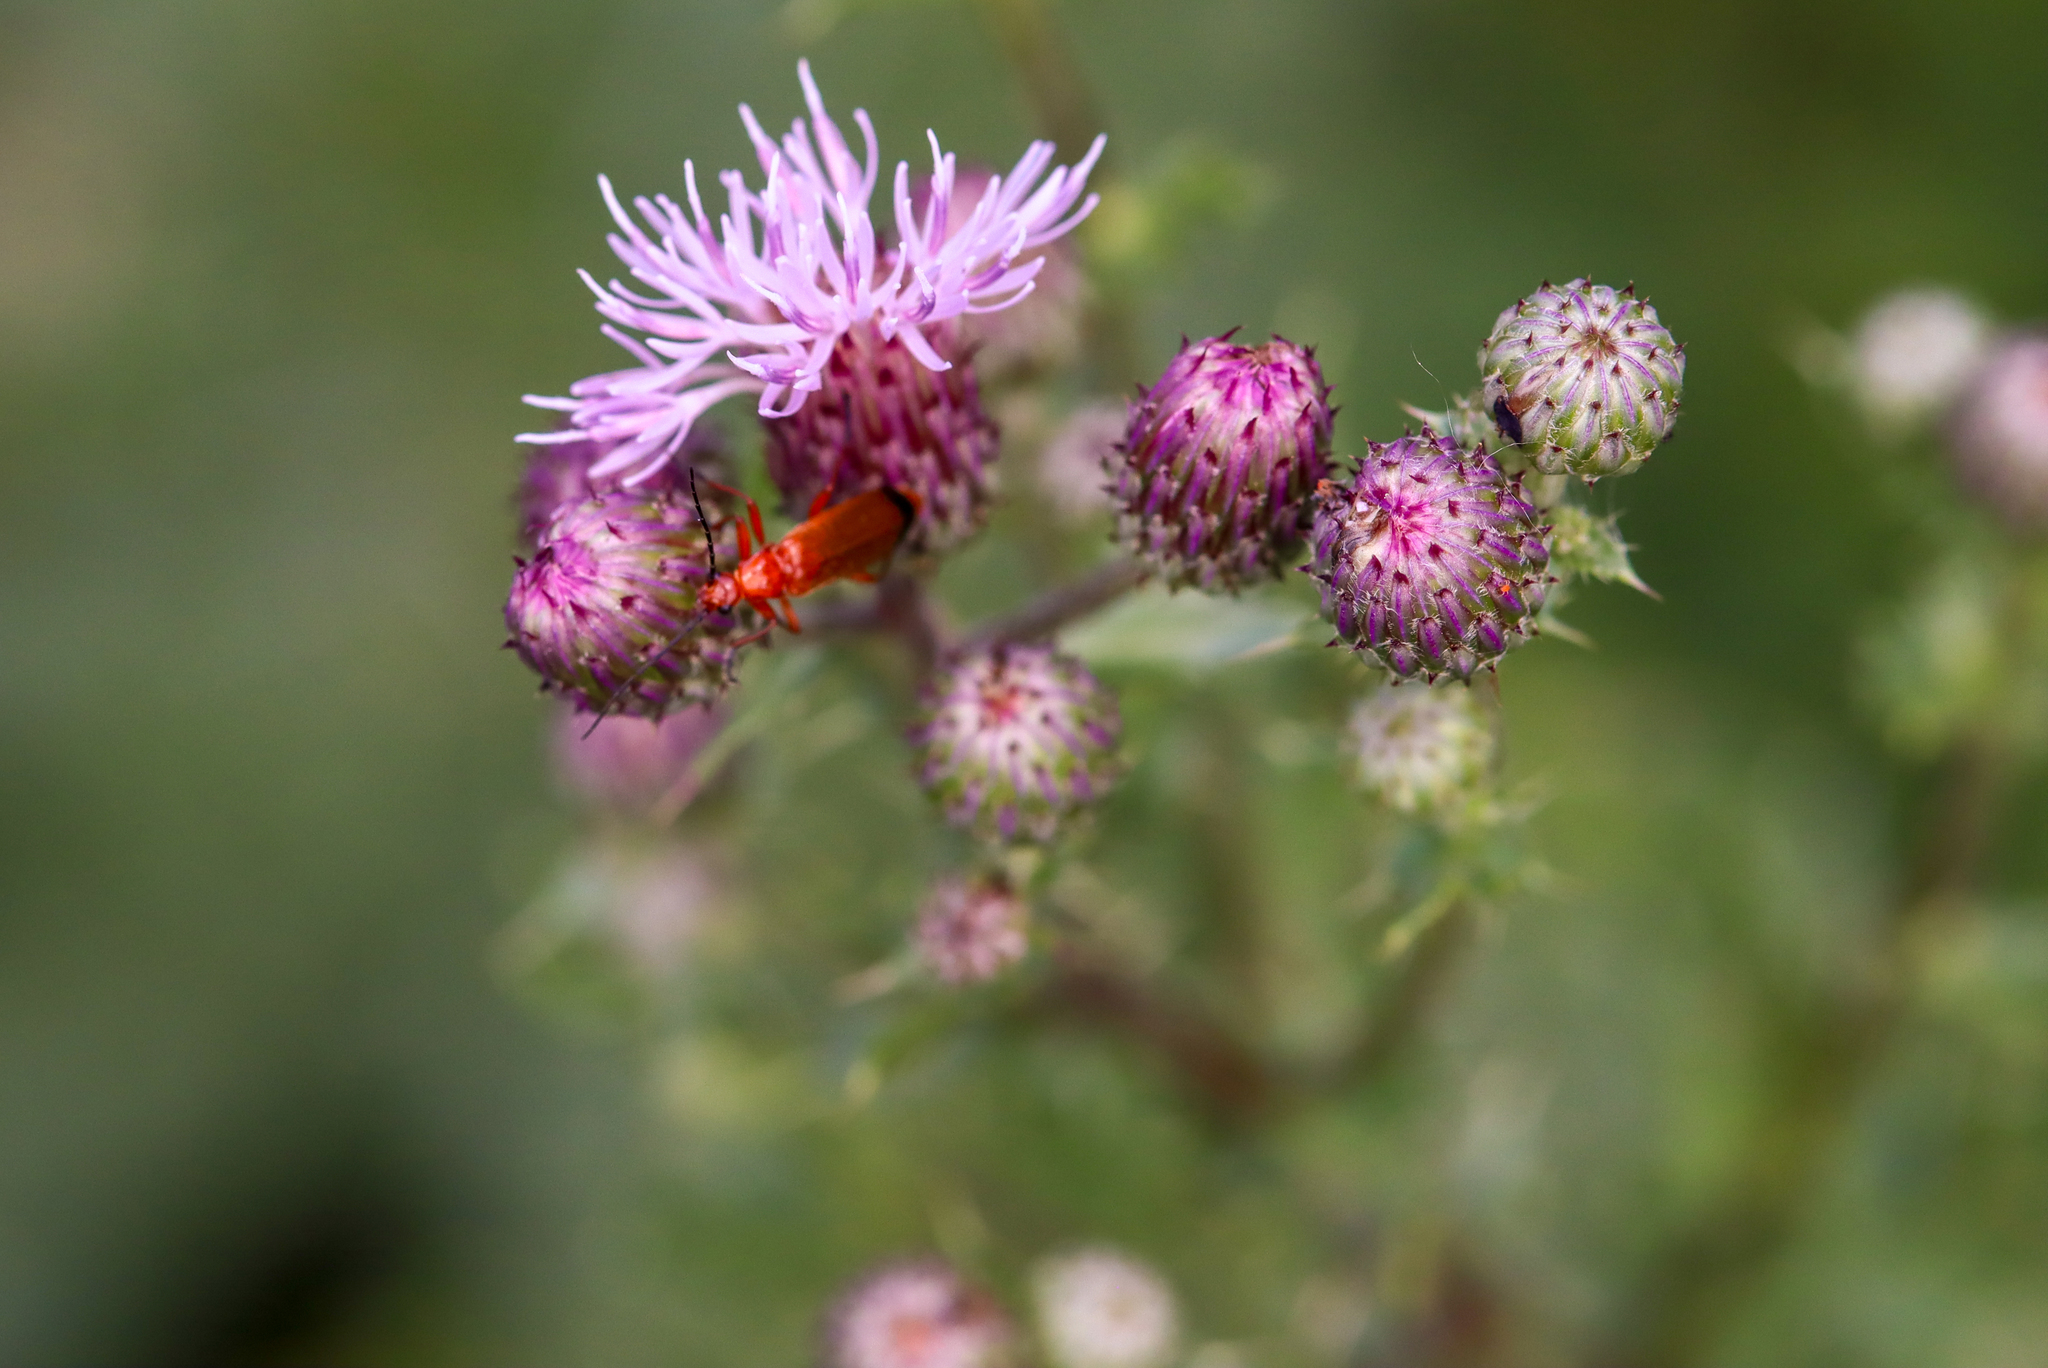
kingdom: Animalia
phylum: Arthropoda
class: Insecta
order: Coleoptera
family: Cantharidae
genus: Rhagonycha
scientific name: Rhagonycha fulva
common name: Common red soldier beetle
